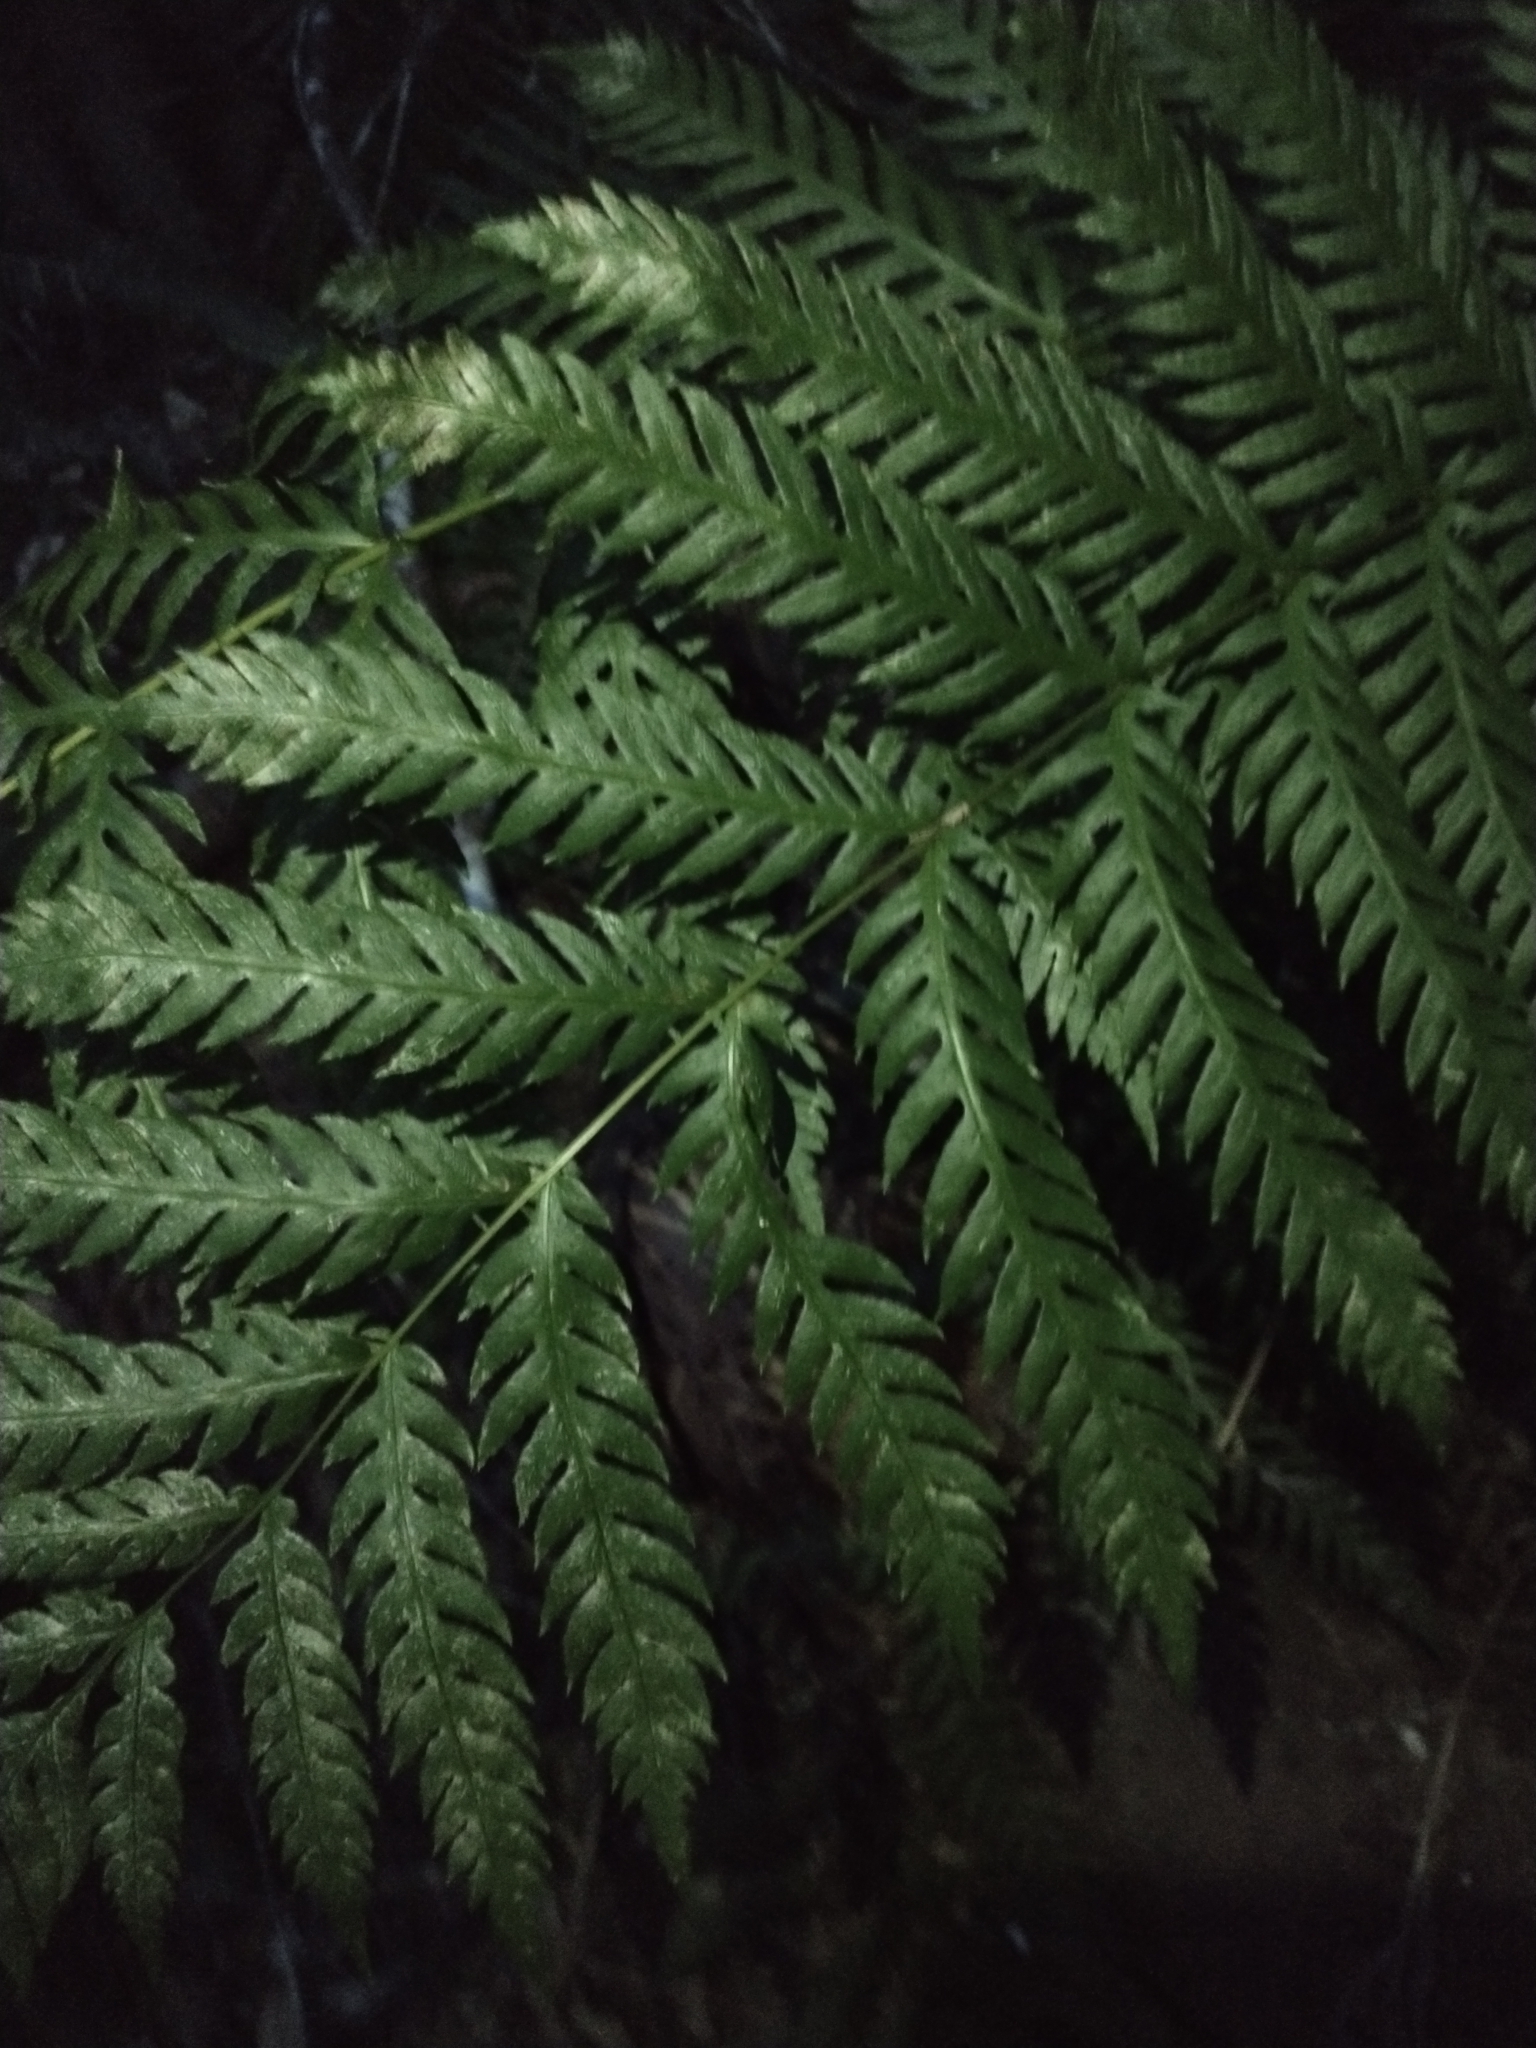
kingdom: Plantae
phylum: Tracheophyta
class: Polypodiopsida
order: Polypodiales
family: Blechnaceae
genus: Woodwardia
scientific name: Woodwardia fimbriata
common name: Giant chain fern
